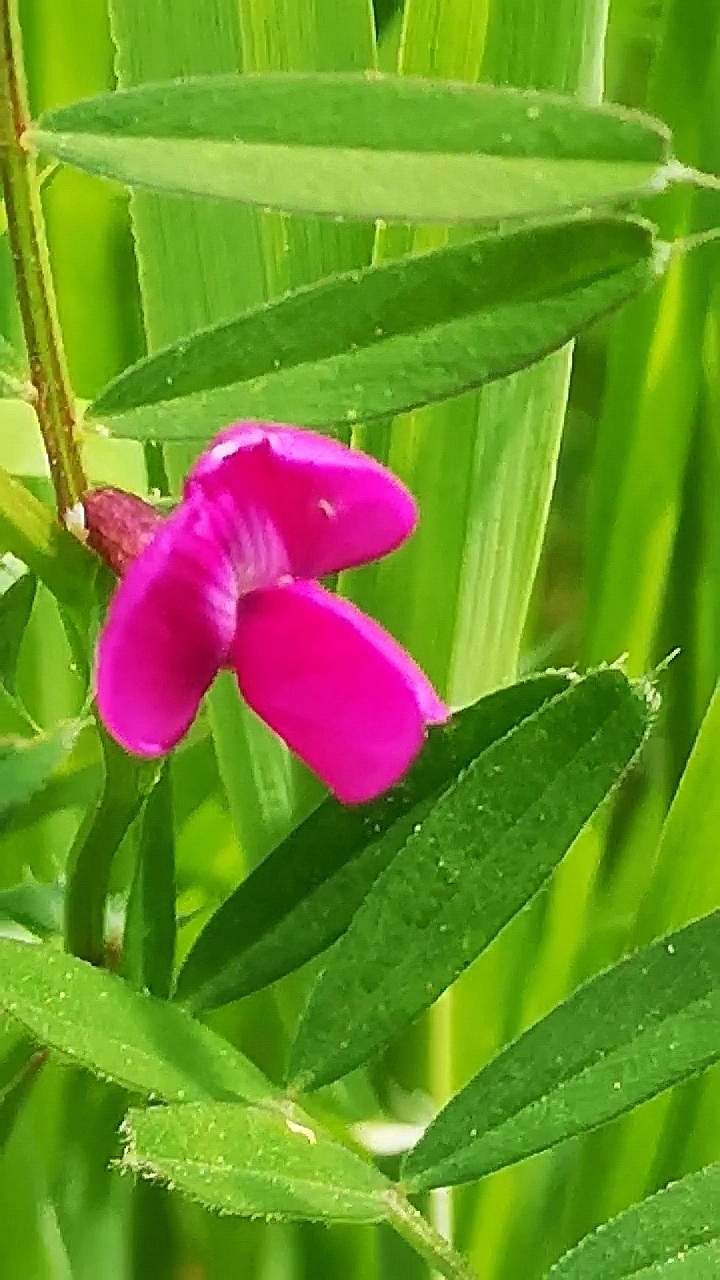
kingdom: Plantae
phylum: Tracheophyta
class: Magnoliopsida
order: Fabales
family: Fabaceae
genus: Vicia
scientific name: Vicia sativa
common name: Garden vetch
